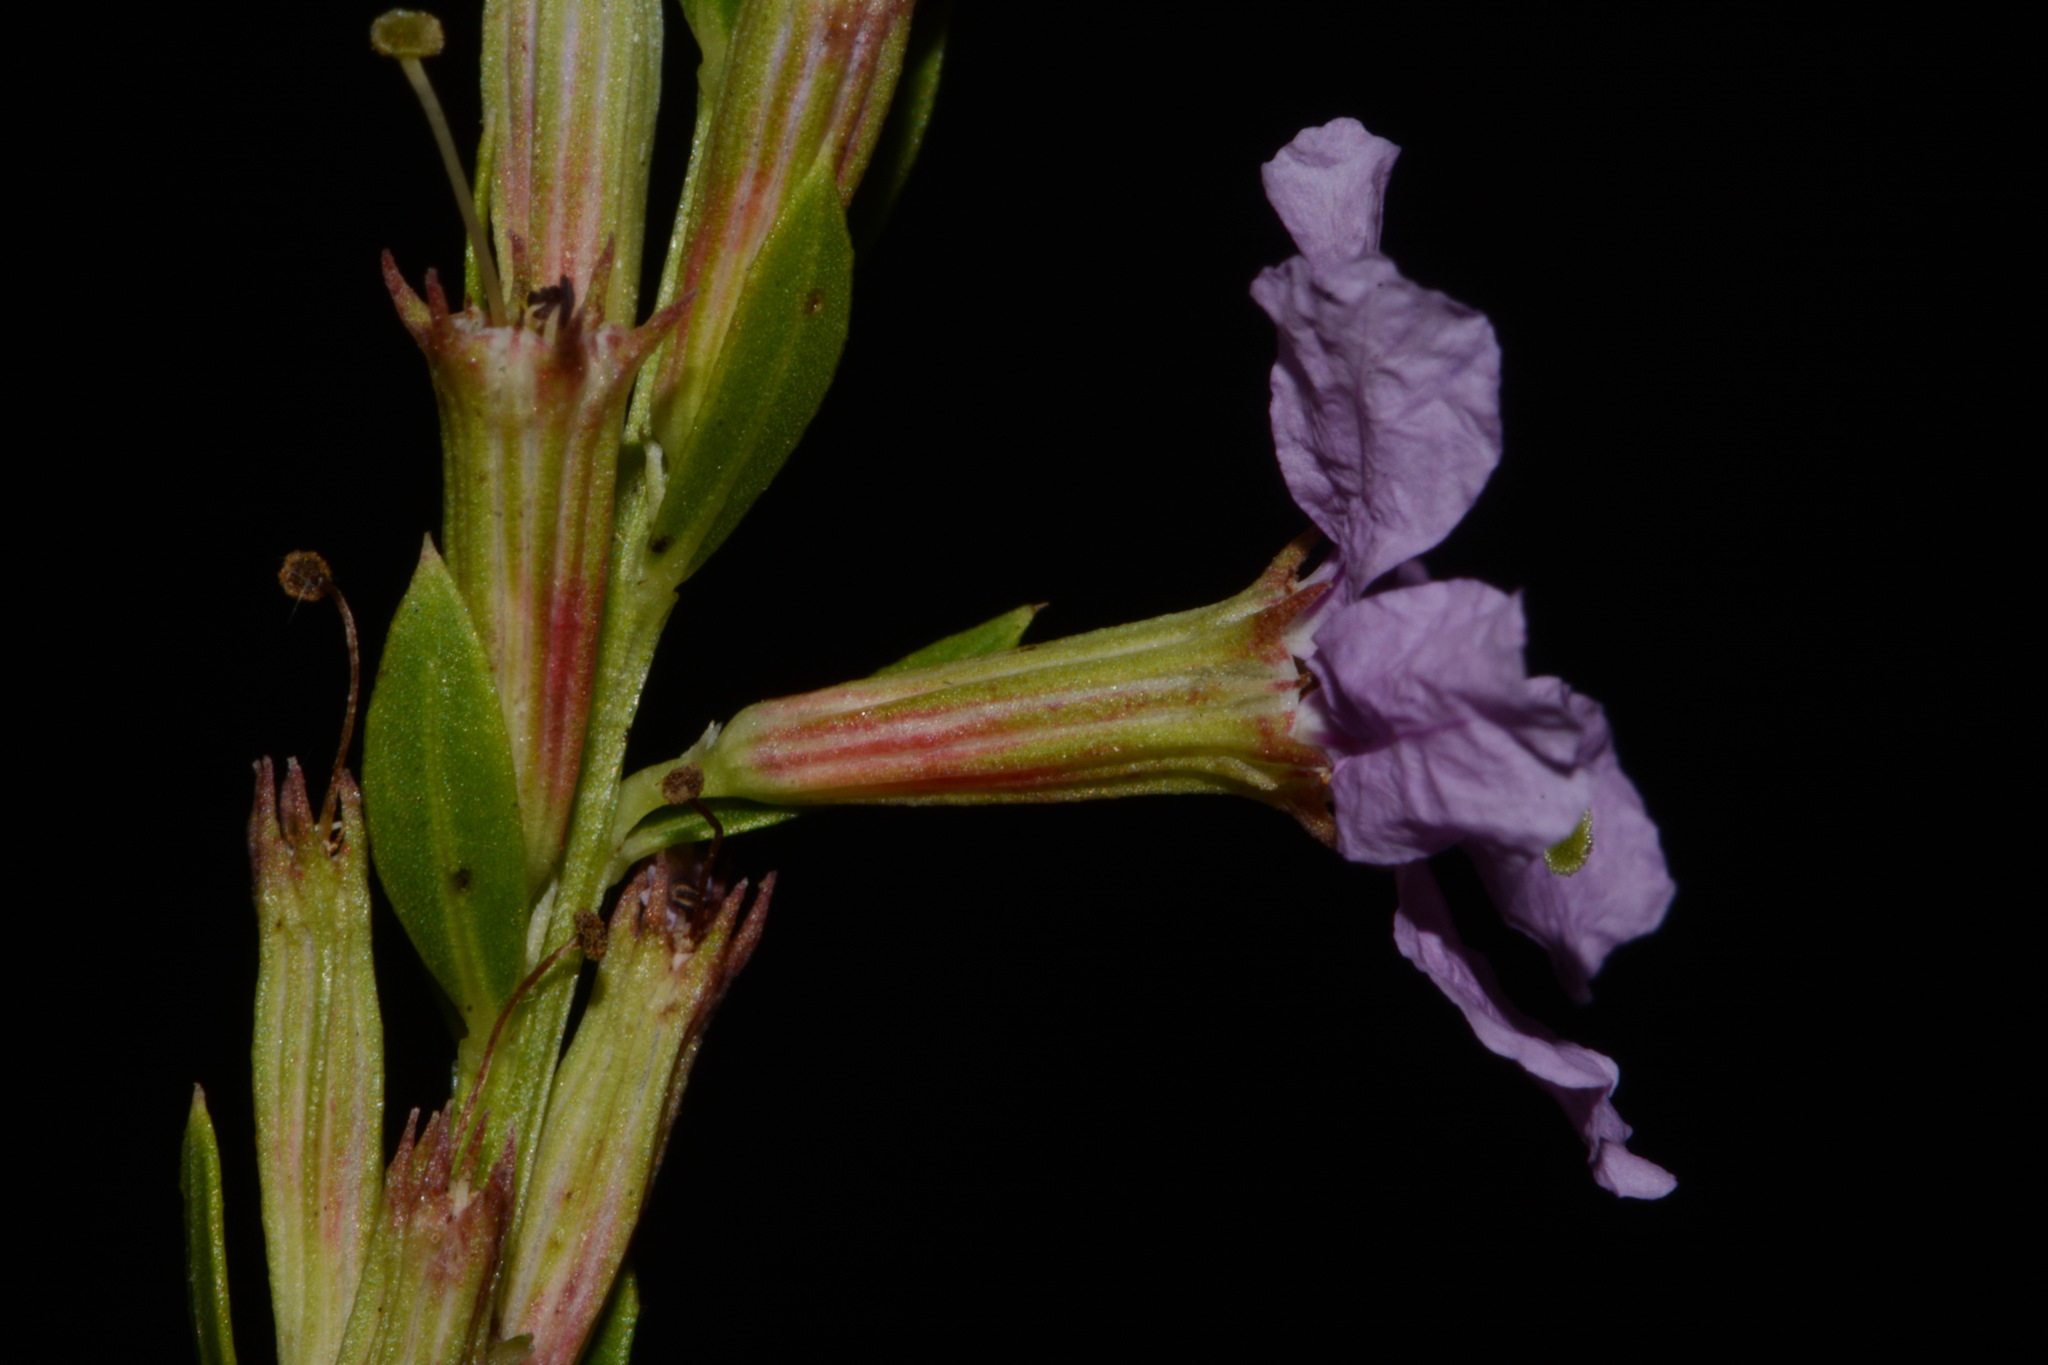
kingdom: Plantae
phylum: Tracheophyta
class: Magnoliopsida
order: Myrtales
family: Lythraceae
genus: Lythrum
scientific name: Lythrum alatum
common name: Winged loosestrife
